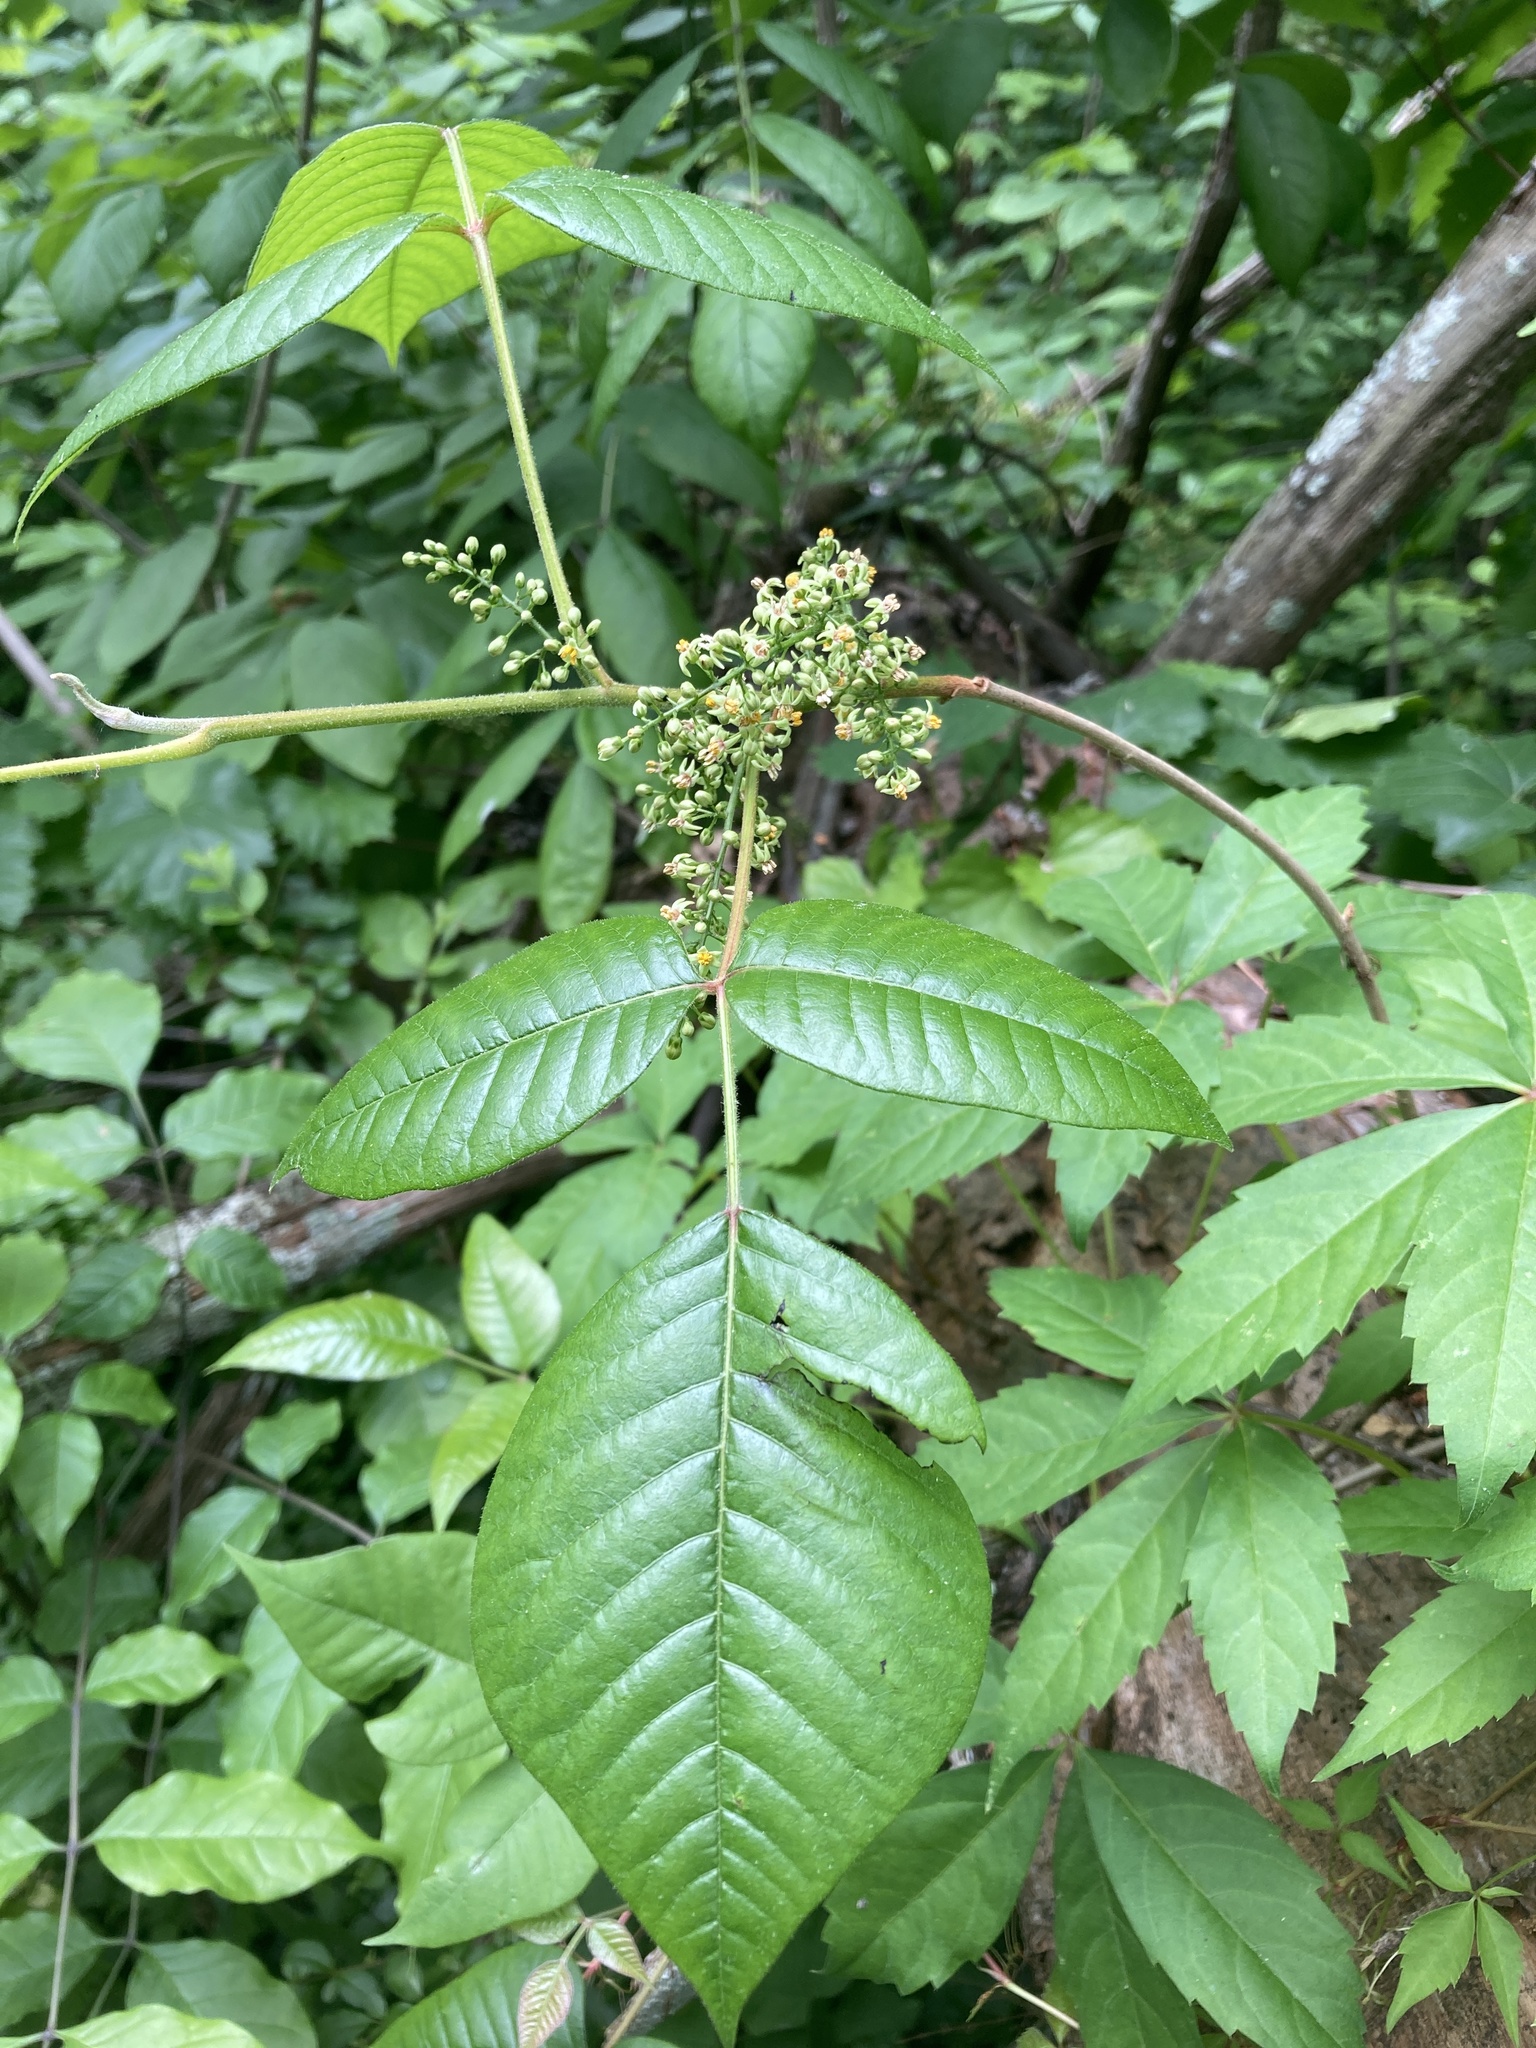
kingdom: Plantae
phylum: Tracheophyta
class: Magnoliopsida
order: Sapindales
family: Anacardiaceae
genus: Toxicodendron
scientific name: Toxicodendron radicans
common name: Poison ivy
